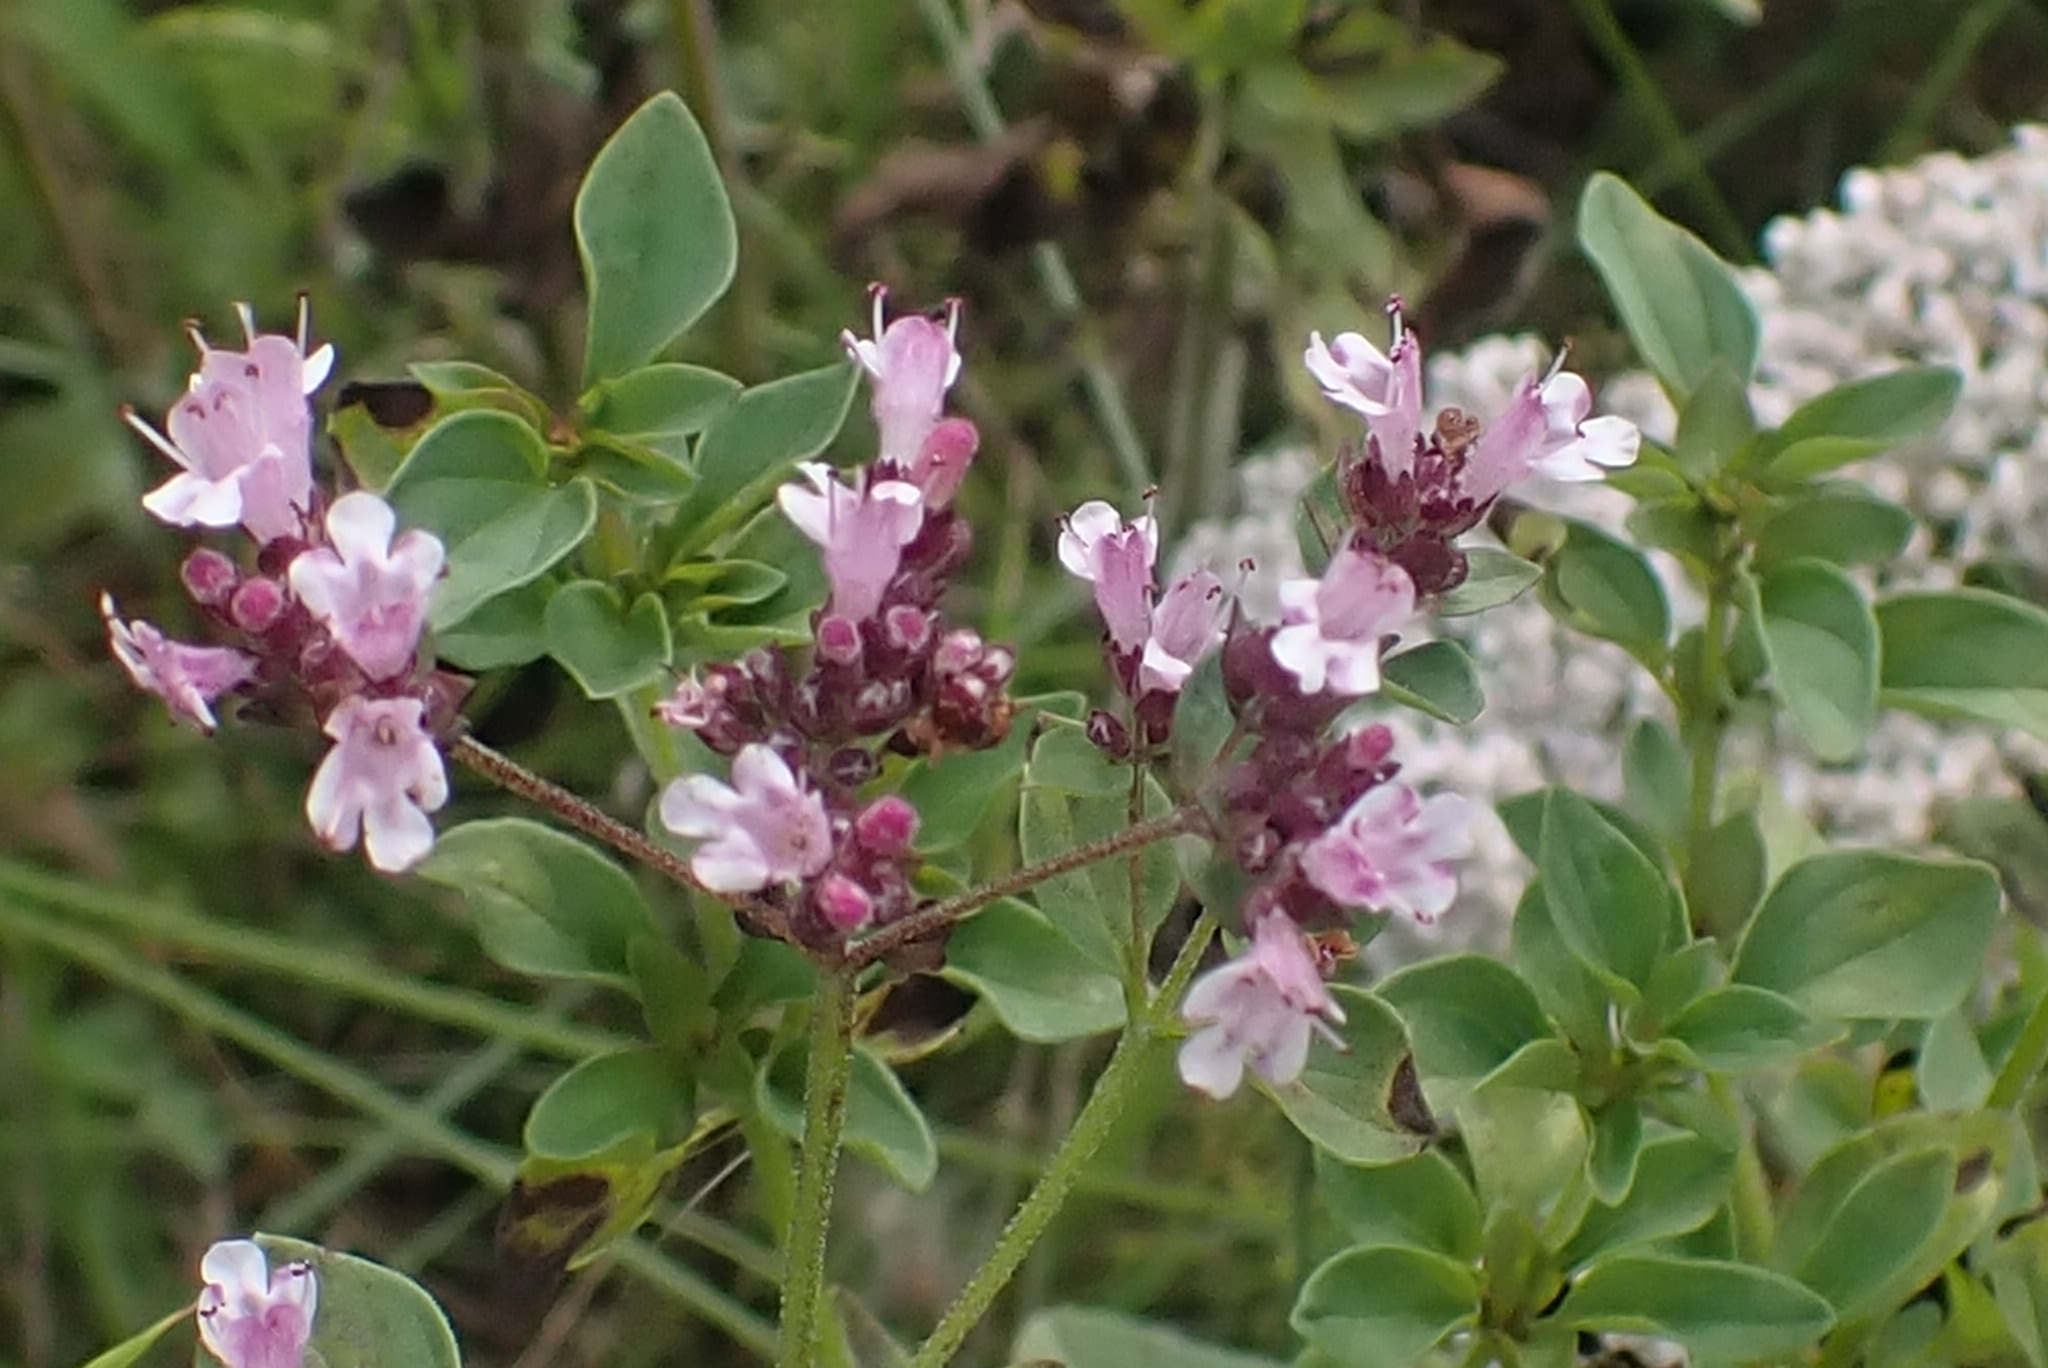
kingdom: Plantae
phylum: Tracheophyta
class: Magnoliopsida
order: Lamiales
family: Lamiaceae
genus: Origanum
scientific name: Origanum vulgare
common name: Wild marjoram
